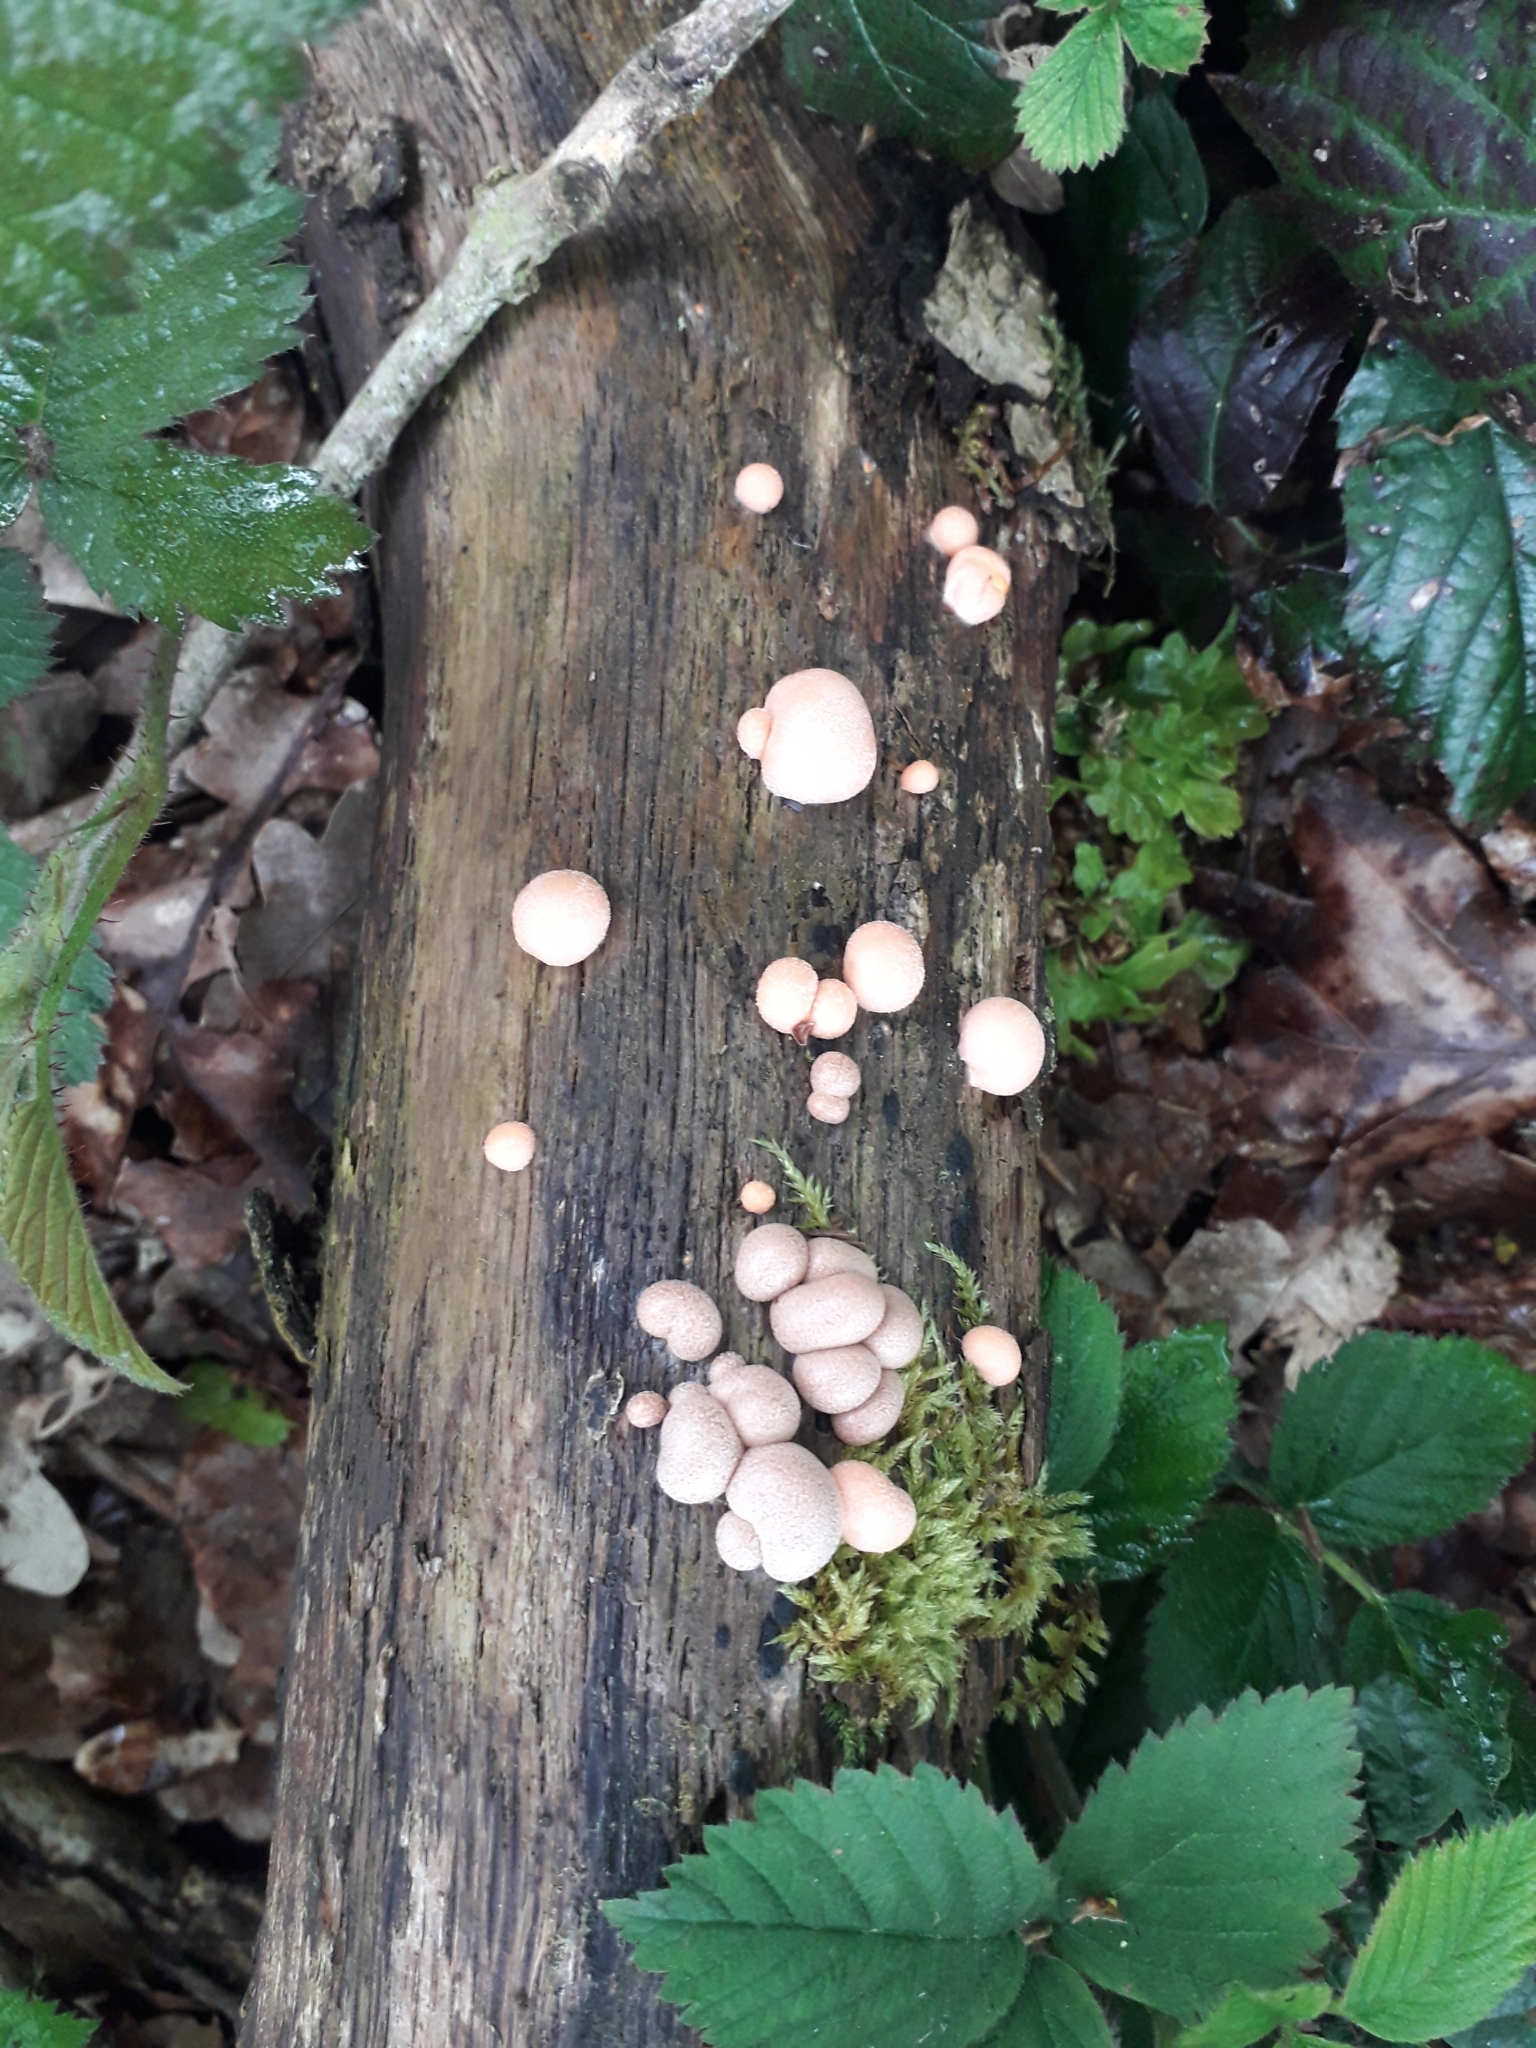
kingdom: Protozoa
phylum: Mycetozoa
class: Myxomycetes
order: Cribrariales
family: Tubiferaceae
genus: Lycogala
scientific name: Lycogala epidendrum
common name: Wolf's milk
